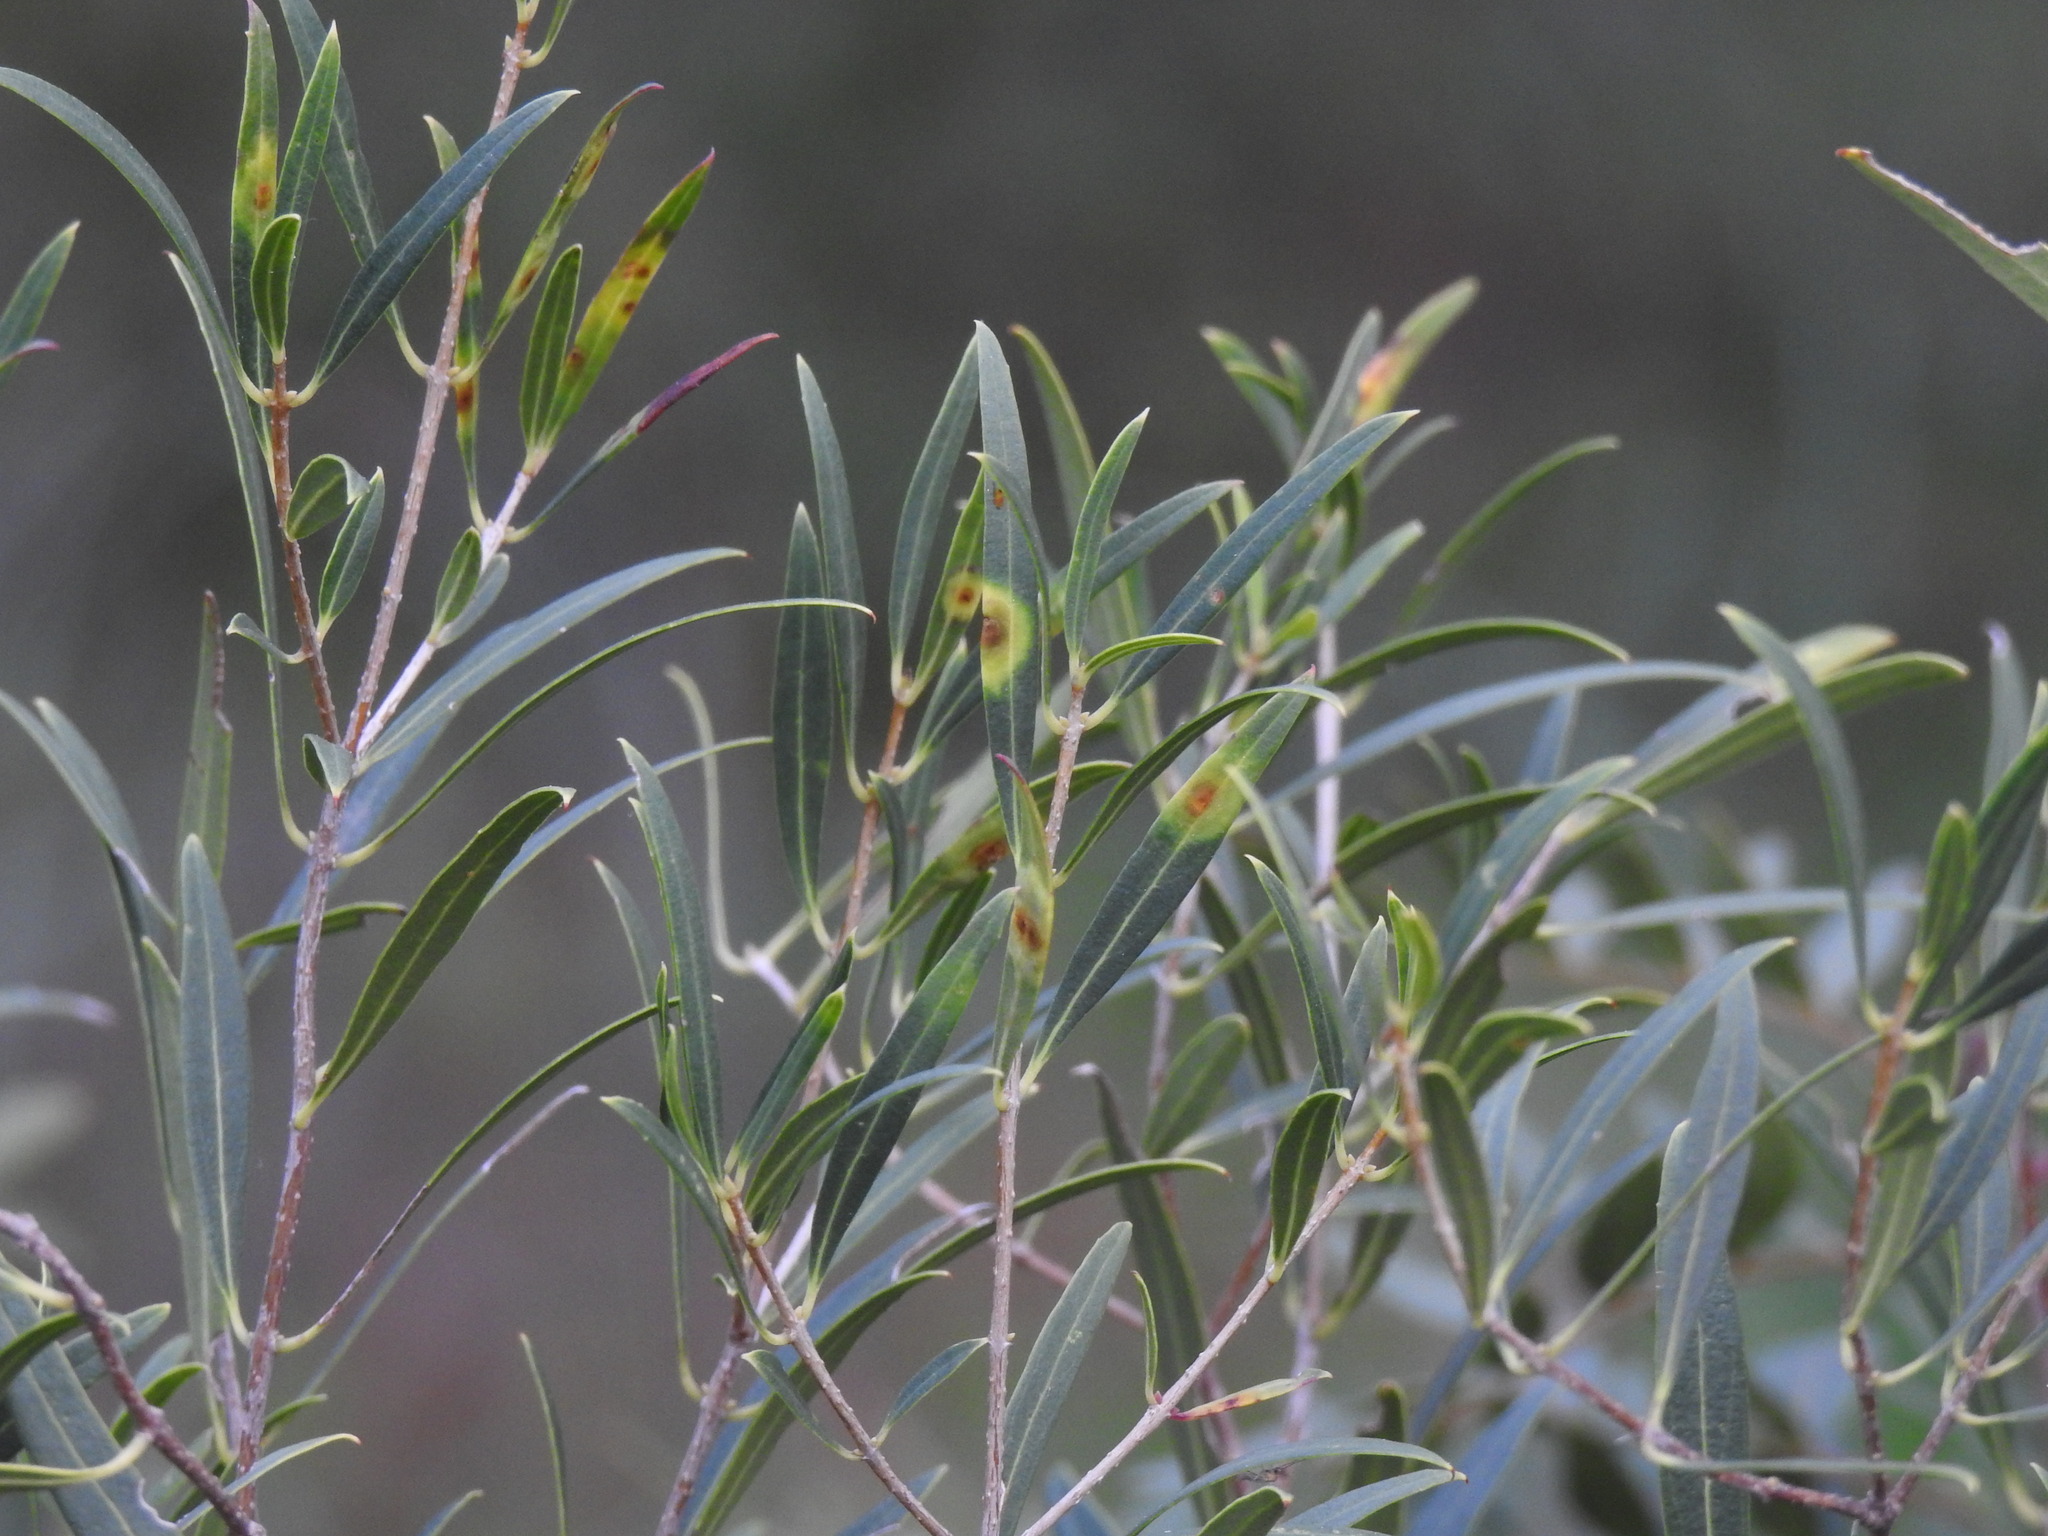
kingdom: Plantae
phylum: Tracheophyta
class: Magnoliopsida
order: Lamiales
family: Oleaceae
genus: Phillyrea
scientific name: Phillyrea angustifolia
